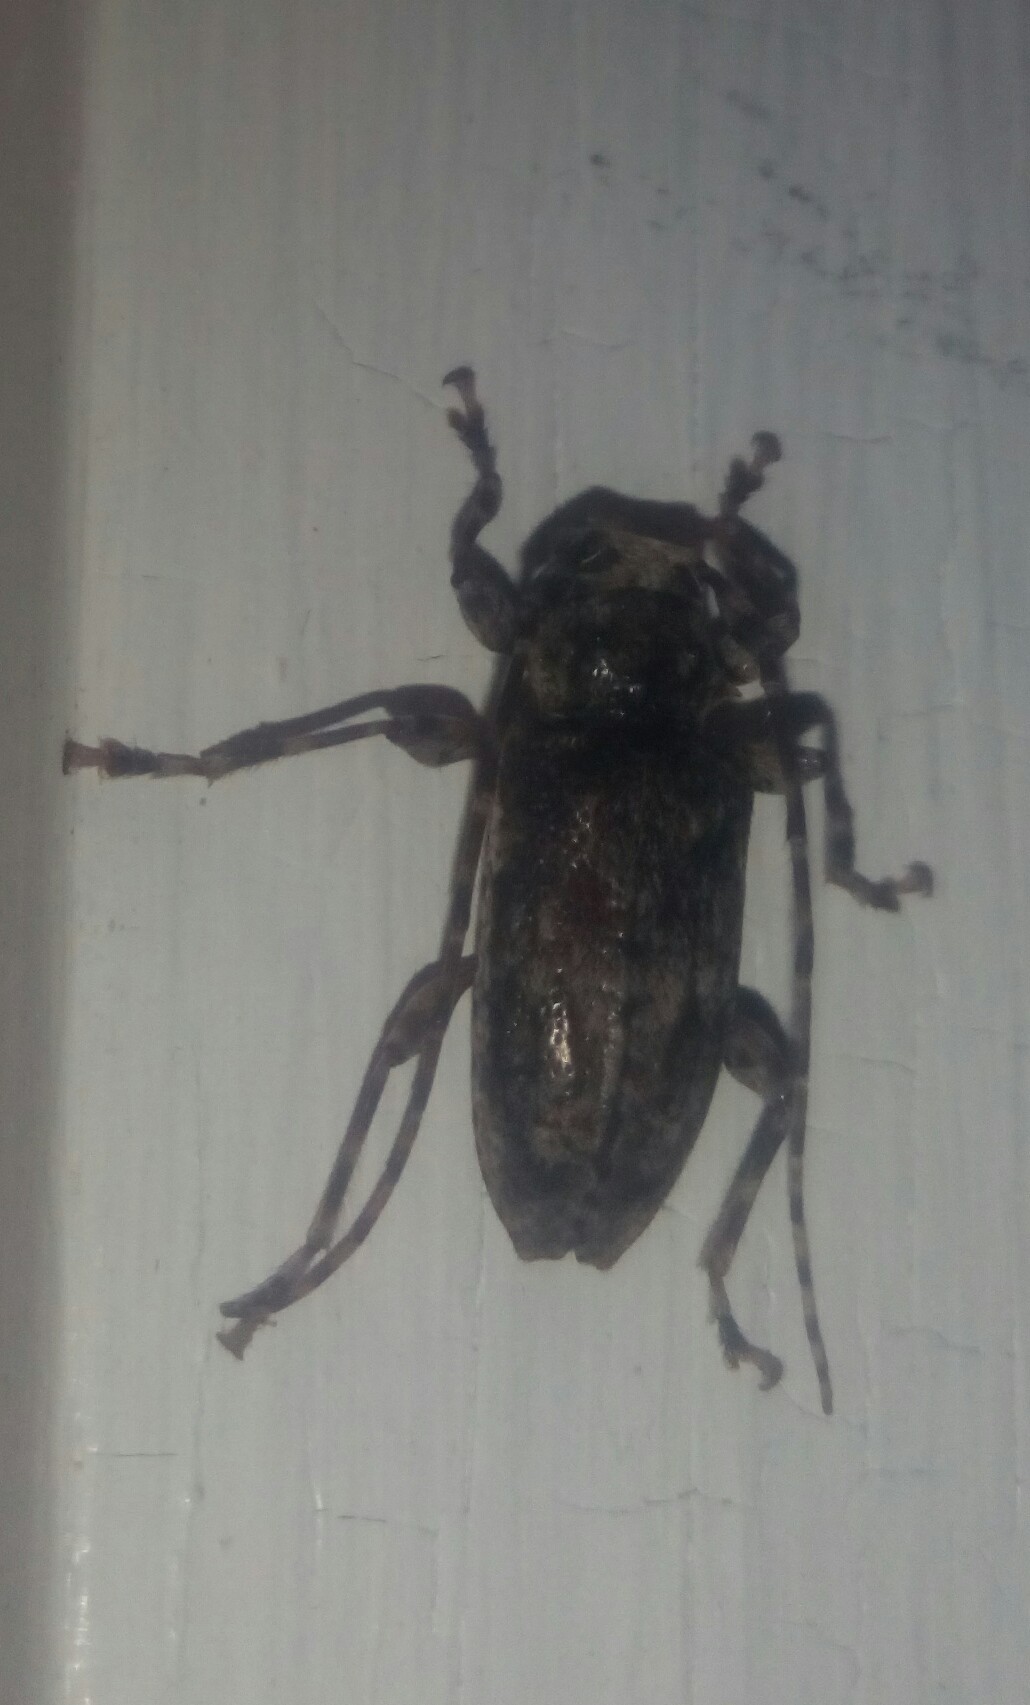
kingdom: Animalia
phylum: Arthropoda
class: Insecta
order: Coleoptera
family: Cerambycidae
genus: Aegomorphus
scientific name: Aegomorphus modestus
